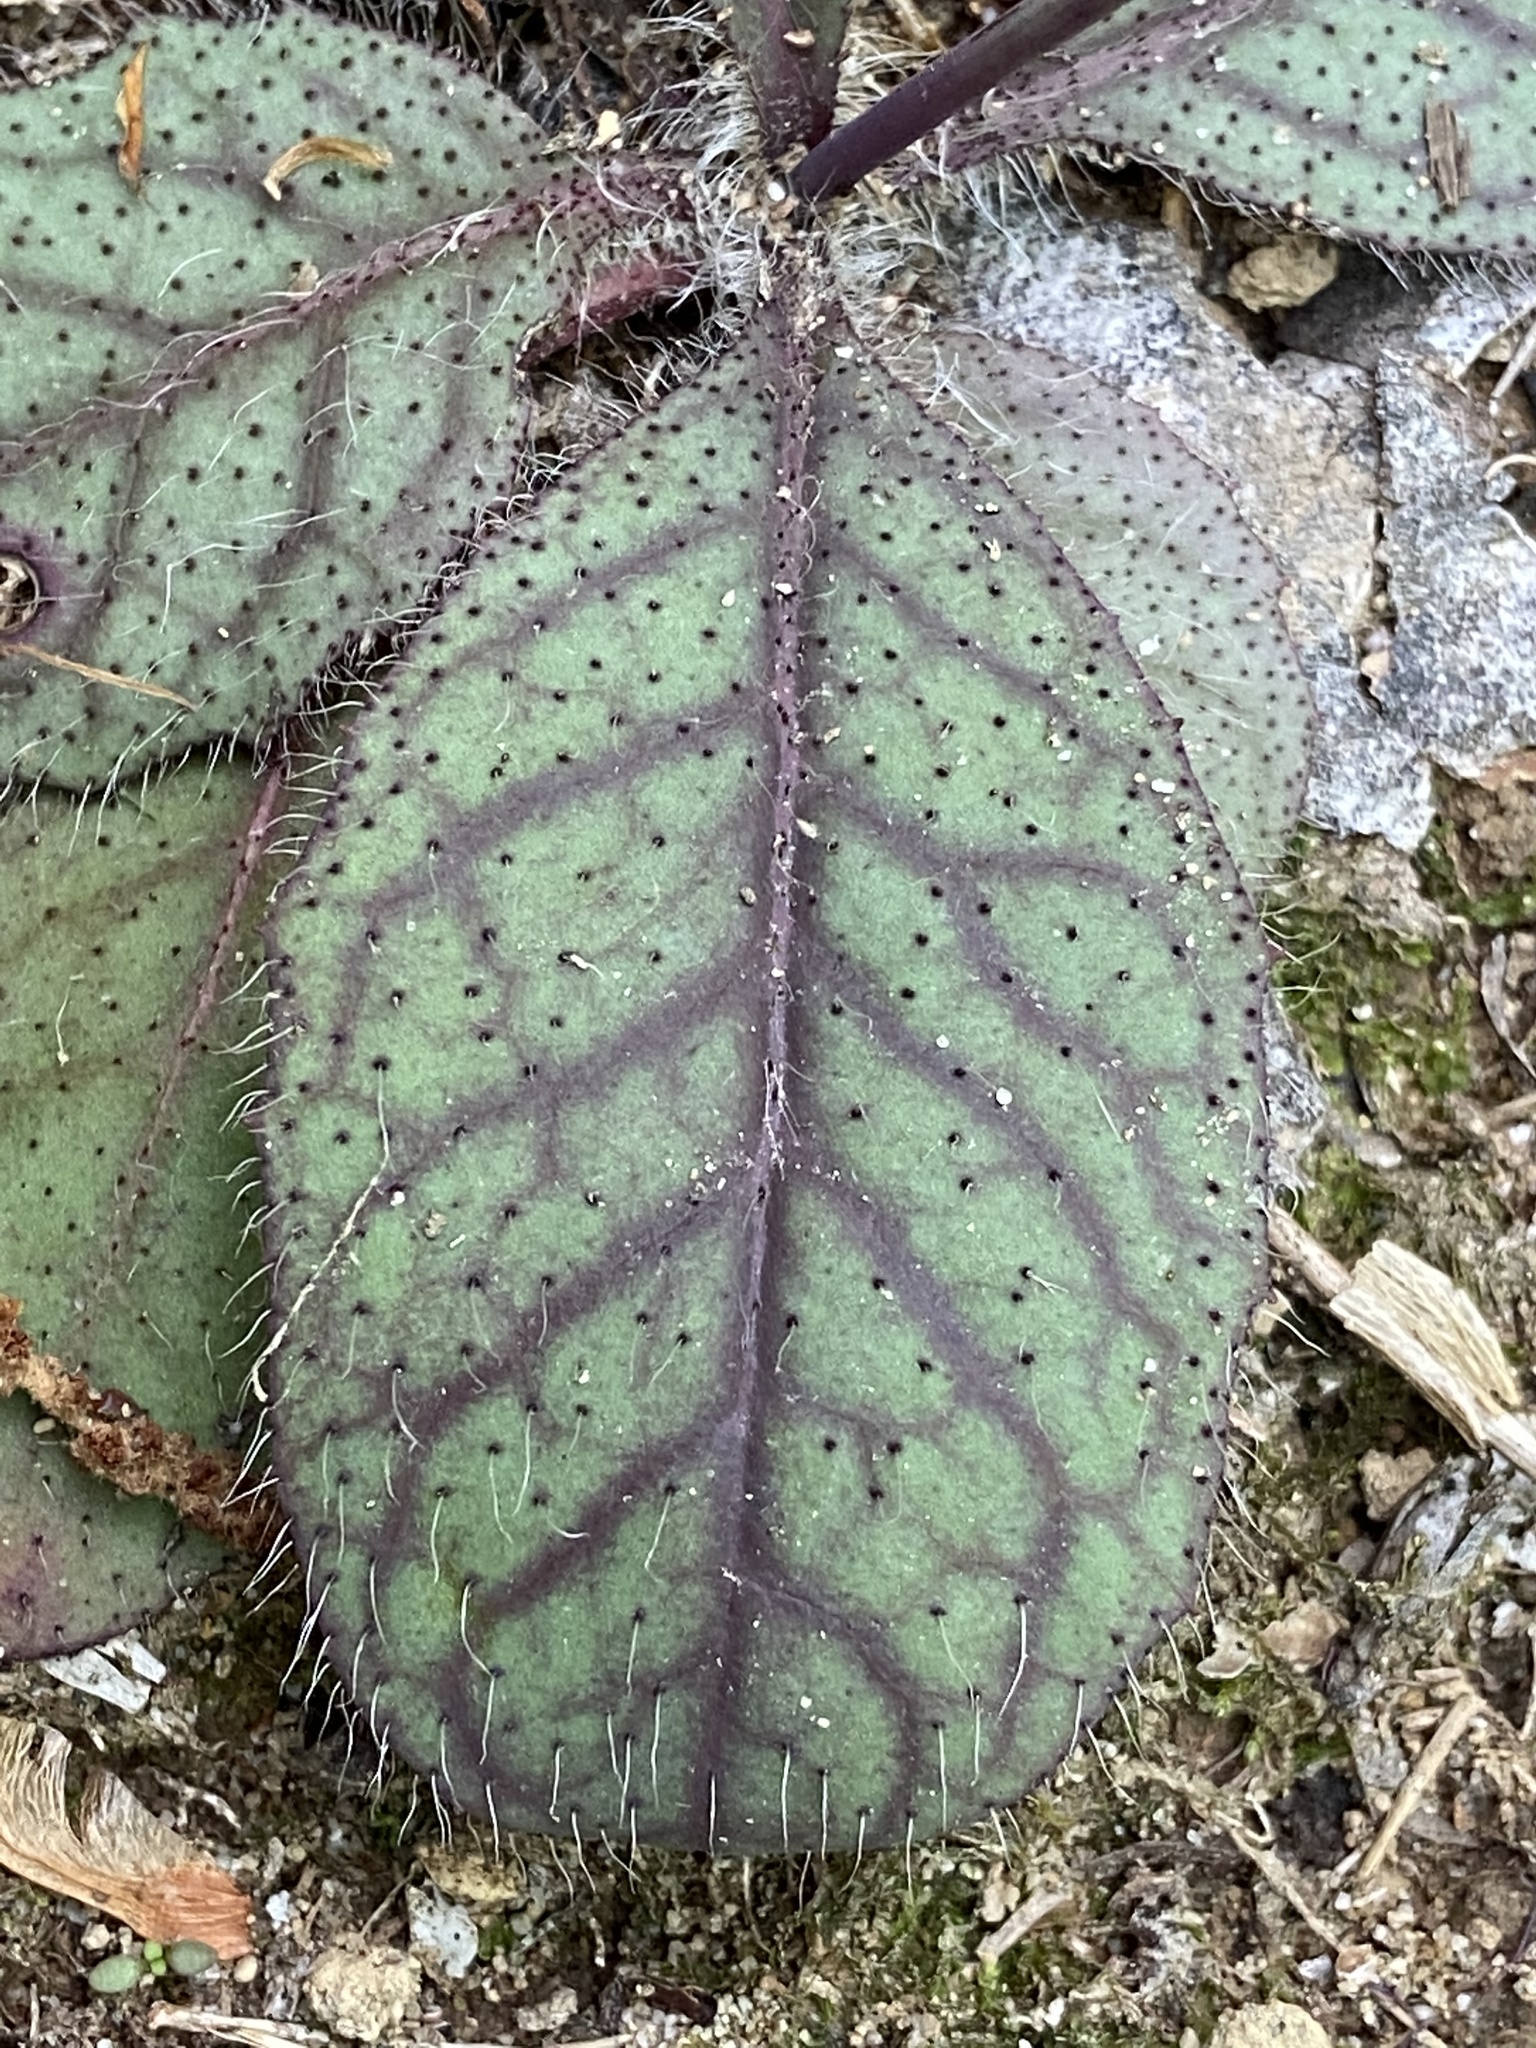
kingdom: Plantae
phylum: Tracheophyta
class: Magnoliopsida
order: Asterales
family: Asteraceae
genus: Hieracium
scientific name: Hieracium venosum
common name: Rattlesnake hawkweed
